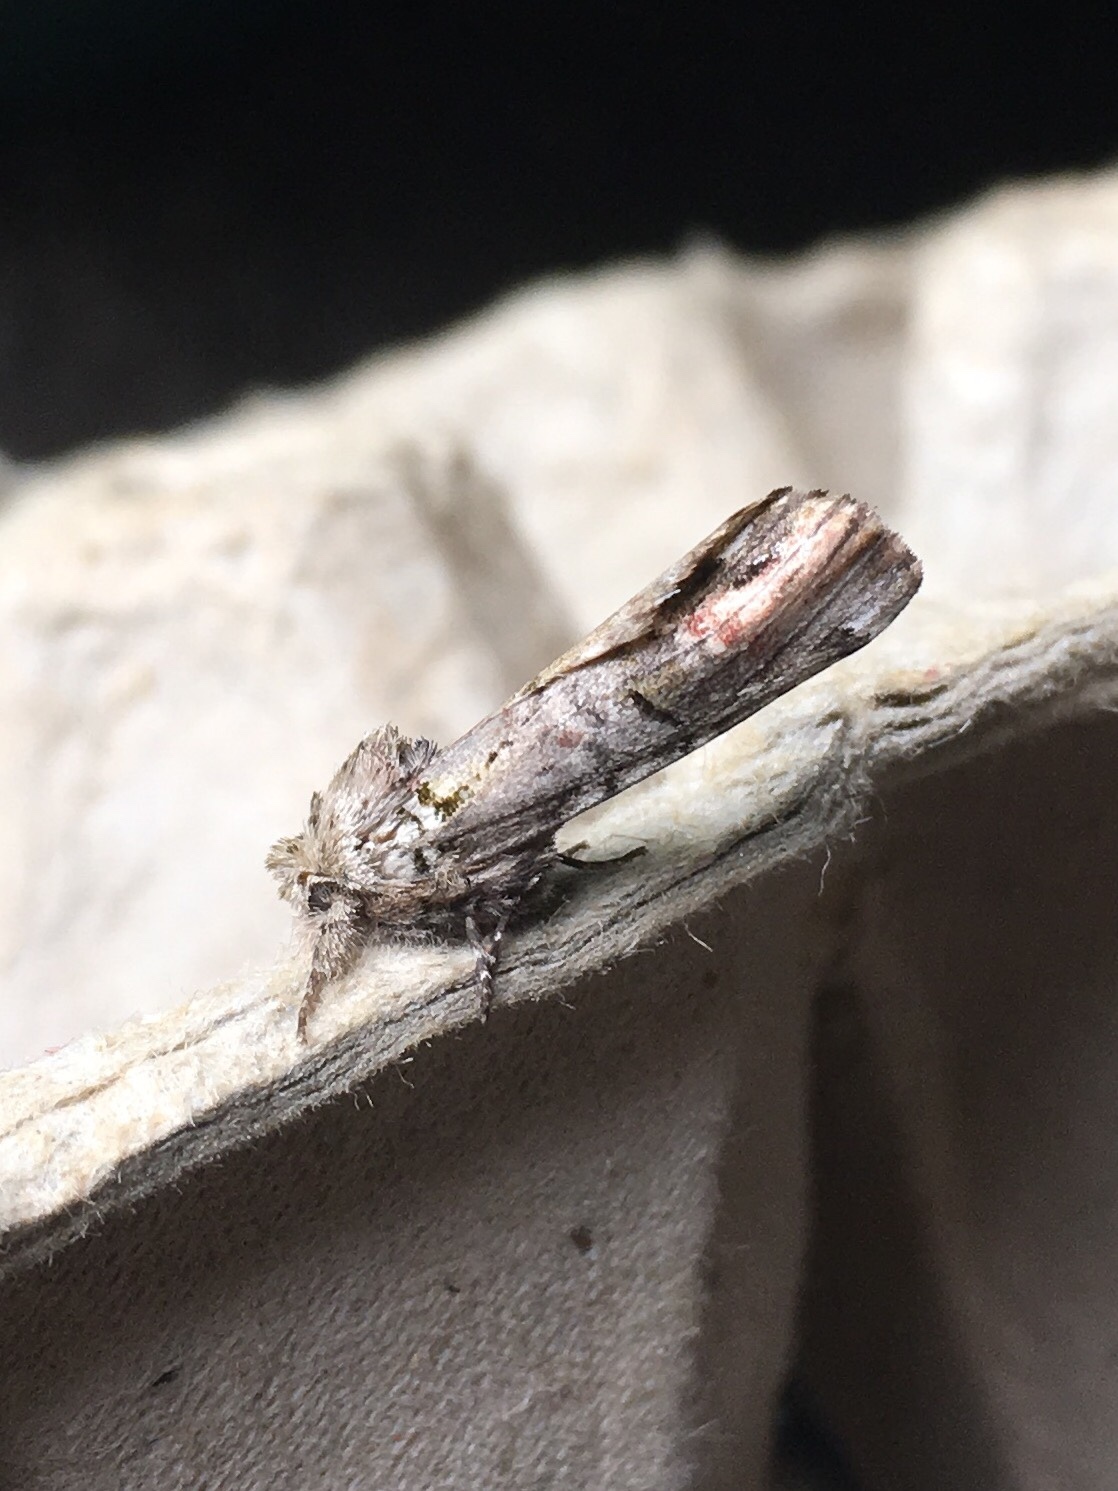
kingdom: Animalia
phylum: Arthropoda
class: Insecta
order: Lepidoptera
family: Notodontidae
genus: Schizura
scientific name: Schizura
